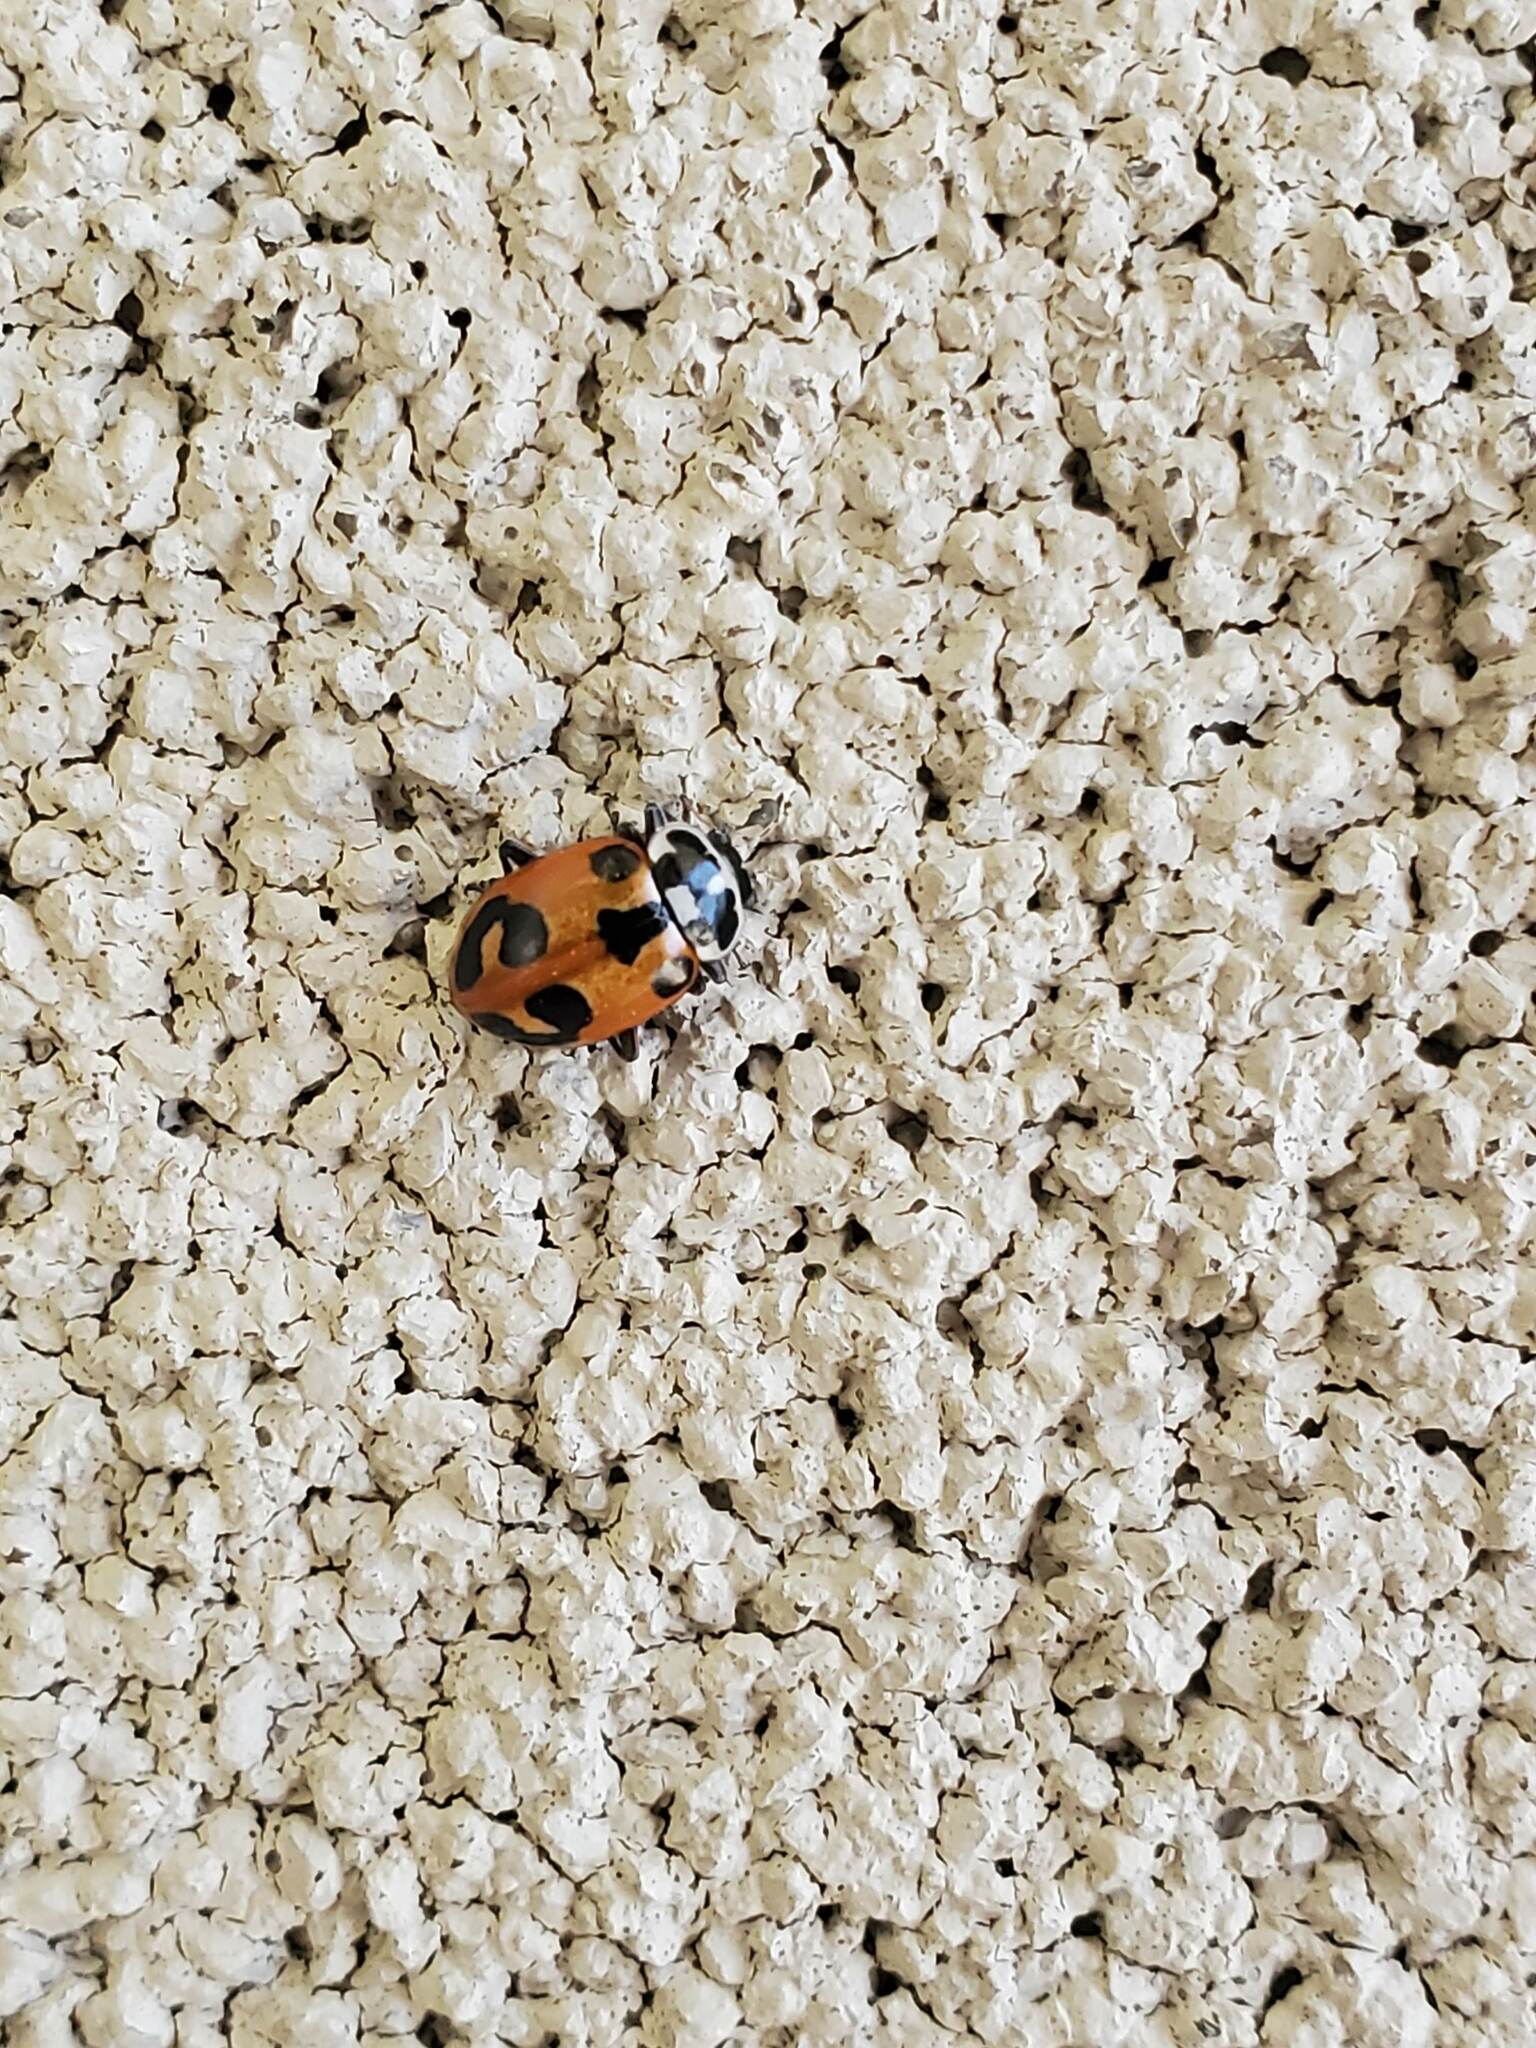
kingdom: Animalia
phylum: Arthropoda
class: Insecta
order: Coleoptera
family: Coccinellidae
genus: Hippodamia
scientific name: Hippodamia parenthesis
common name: Parenthesis lady beetle
